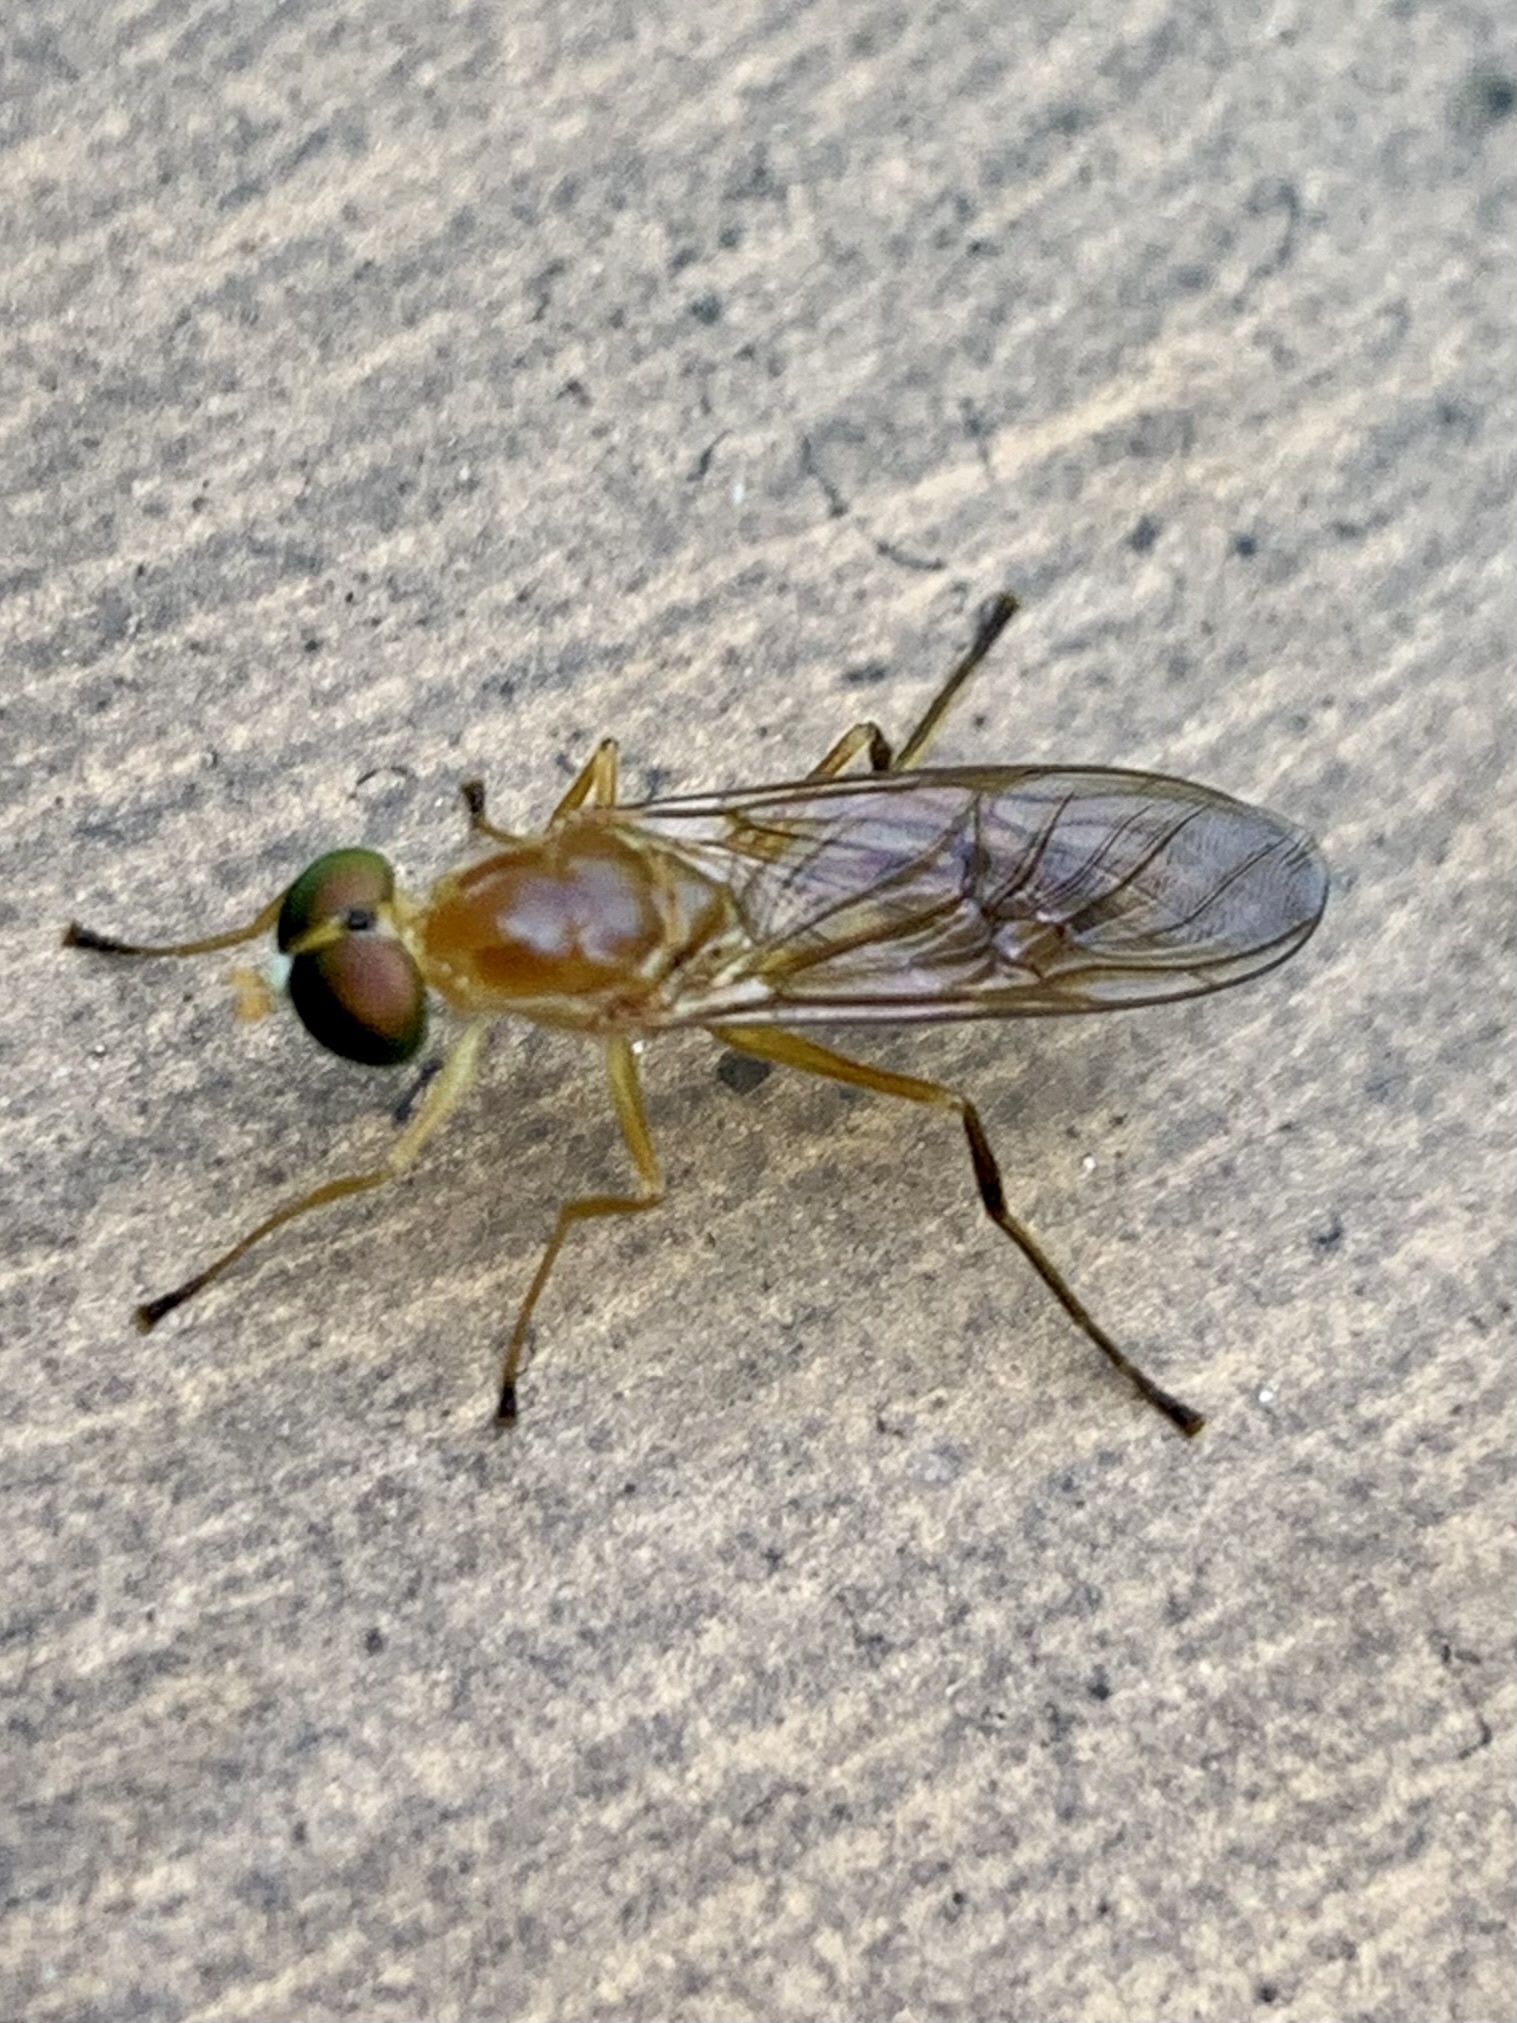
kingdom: Animalia
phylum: Arthropoda
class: Insecta
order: Diptera
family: Stratiomyidae
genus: Ptecticus
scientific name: Ptecticus trivittatus
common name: Compost fly
